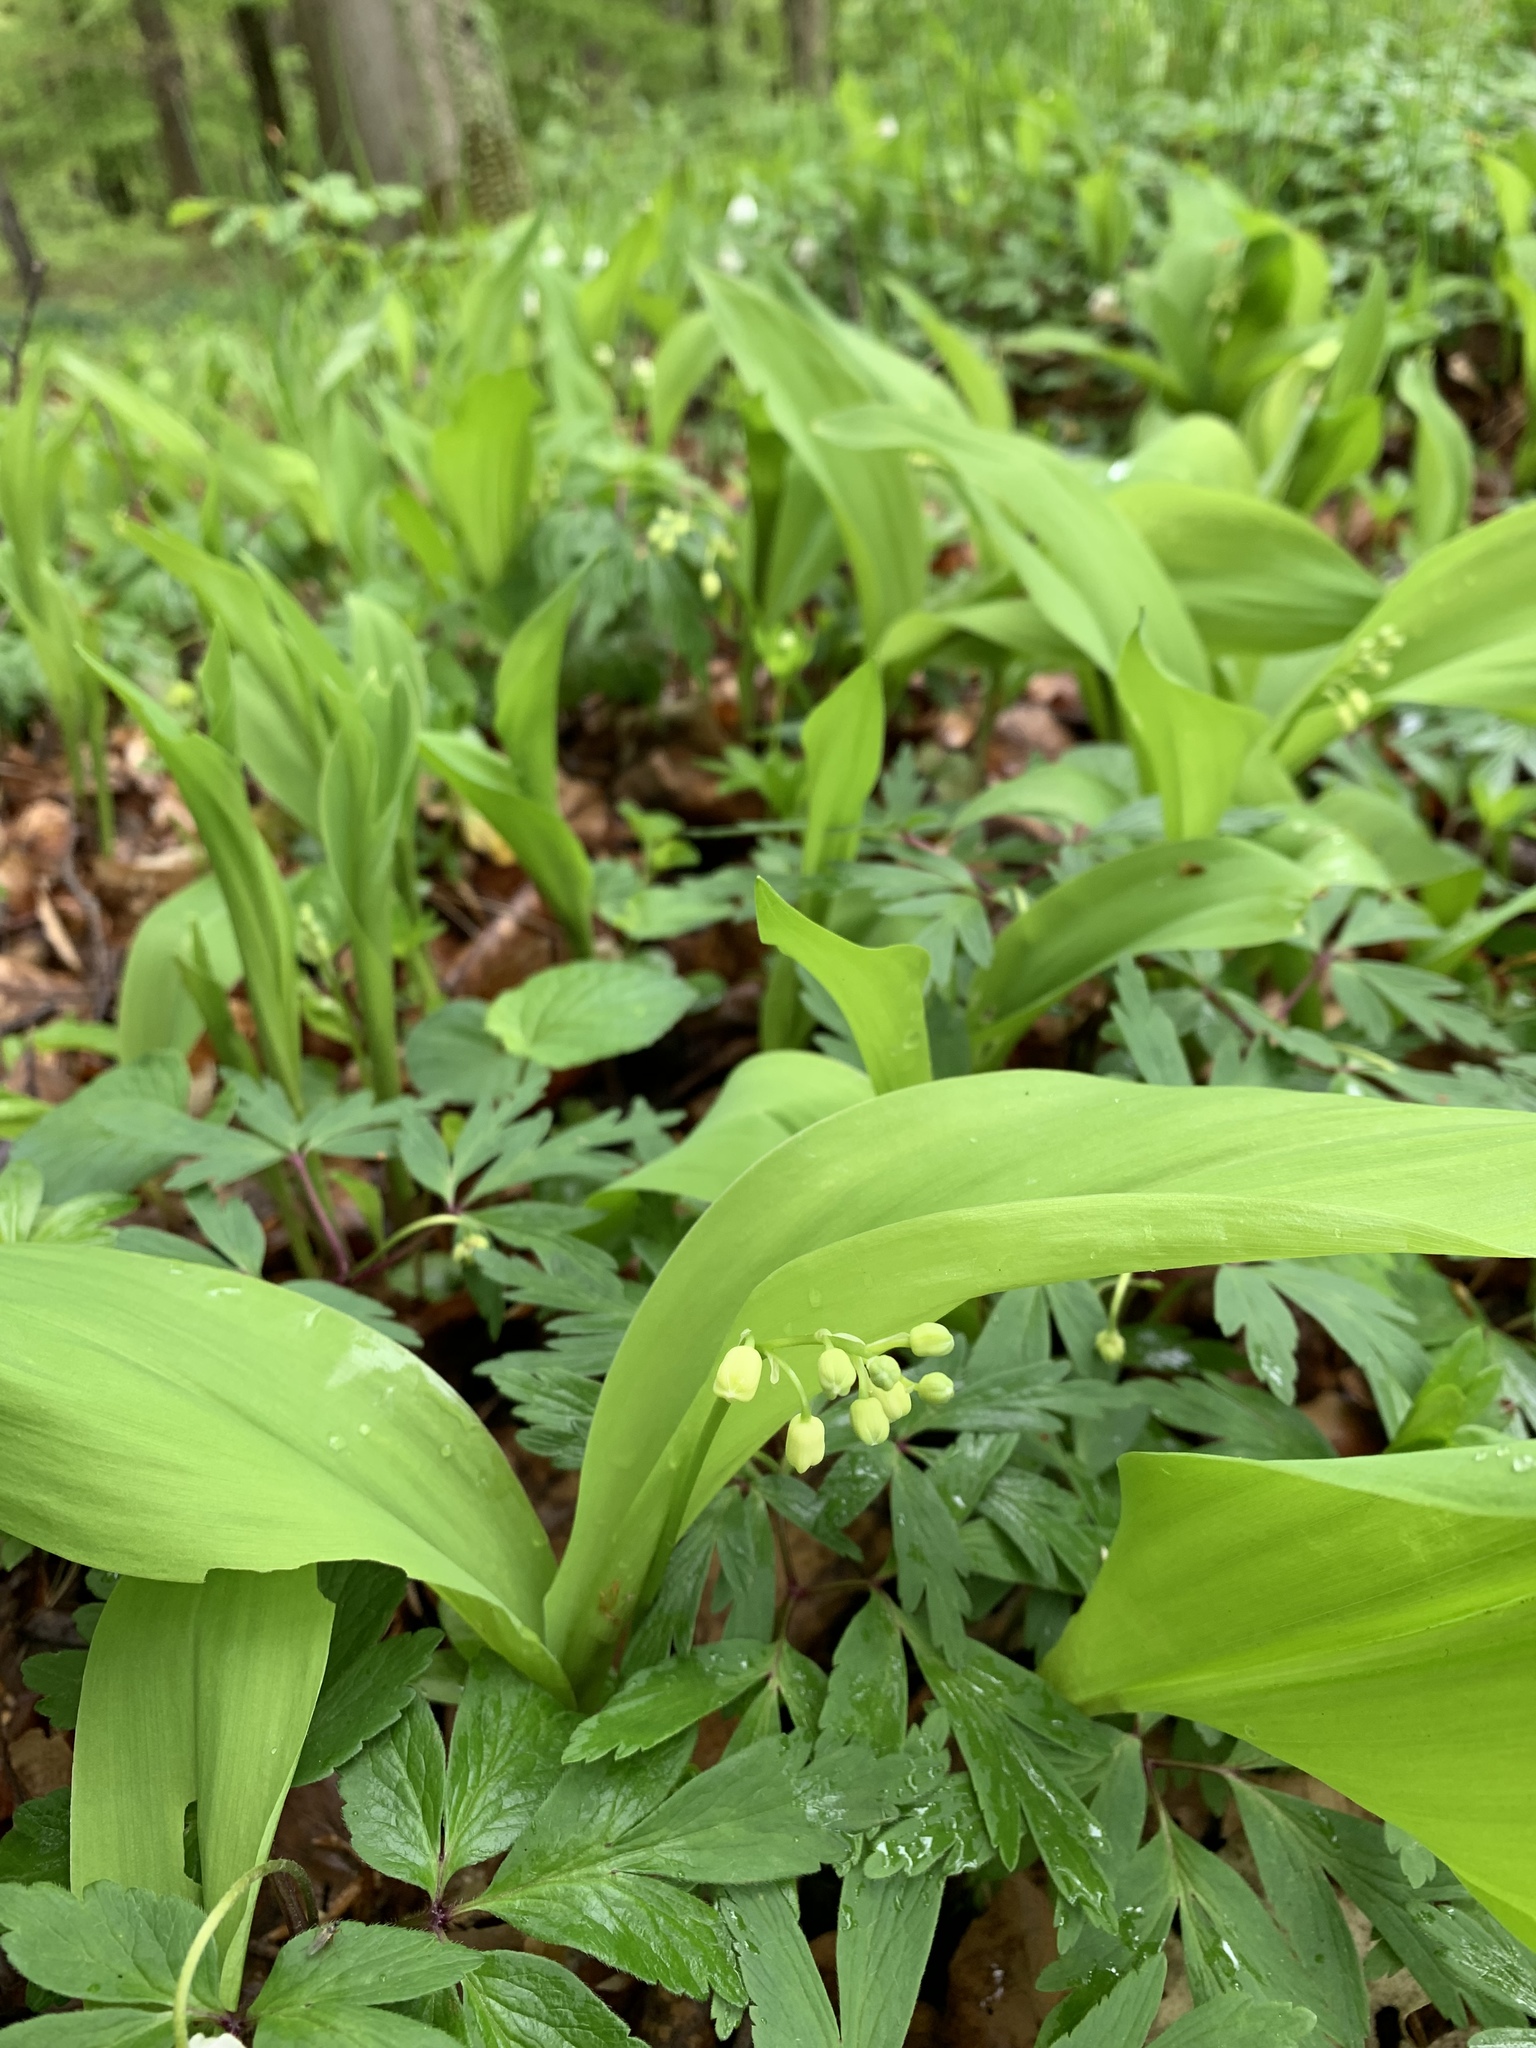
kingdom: Plantae
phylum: Tracheophyta
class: Liliopsida
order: Asparagales
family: Asparagaceae
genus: Convallaria
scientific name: Convallaria majalis
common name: Lily-of-the-valley
